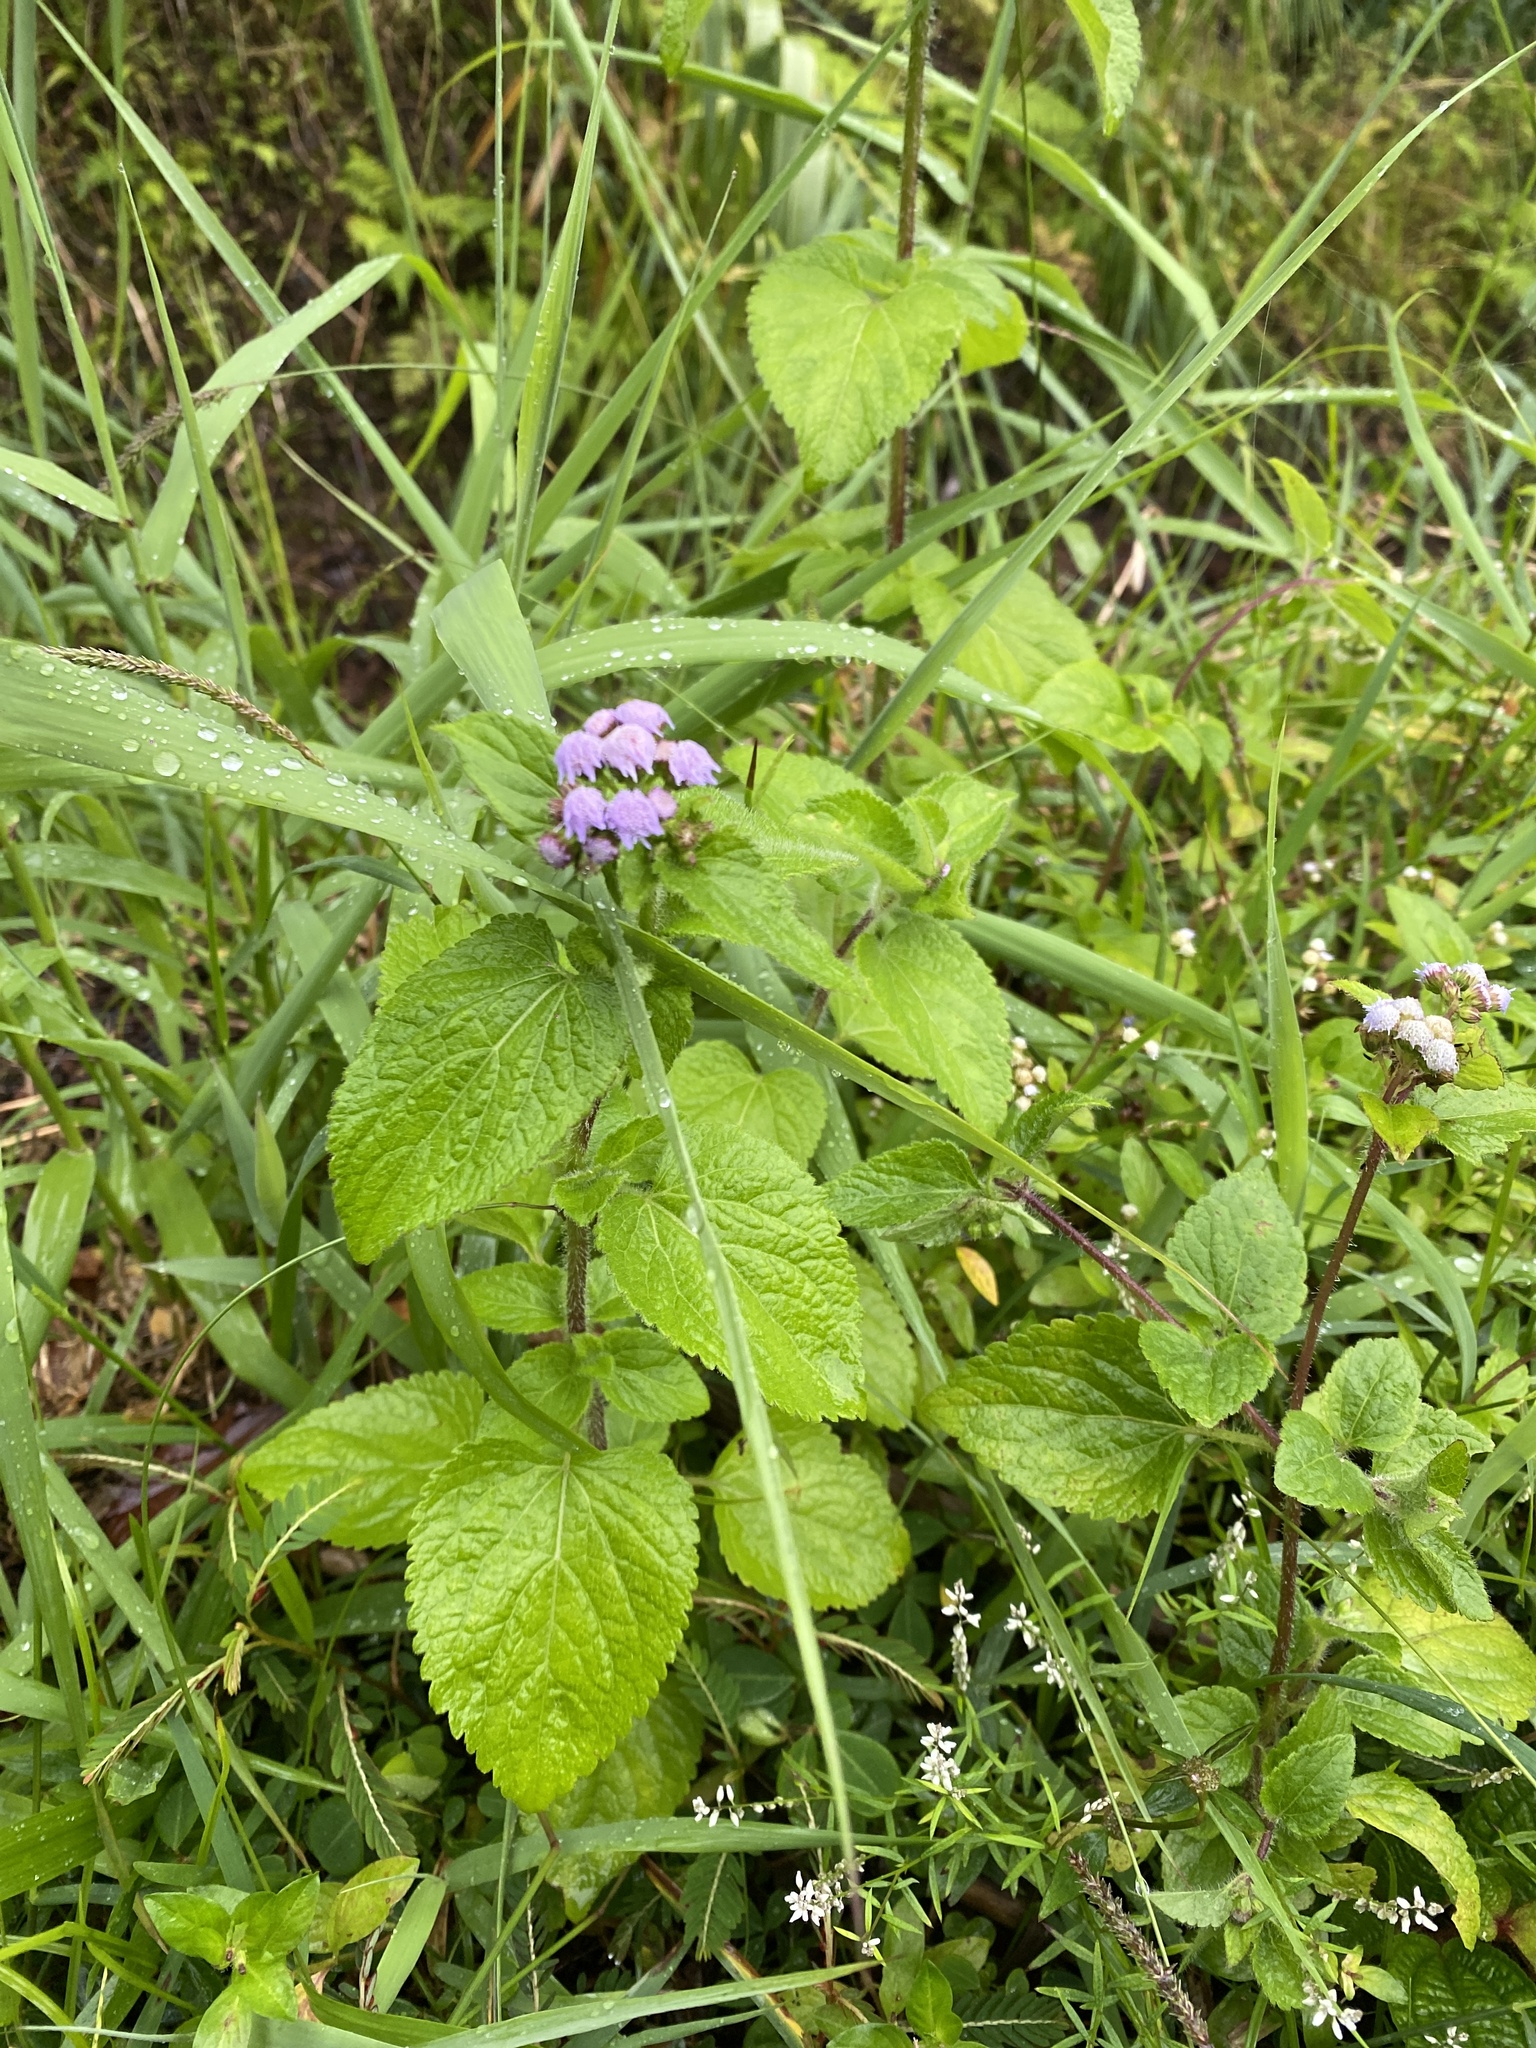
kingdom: Plantae
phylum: Tracheophyta
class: Magnoliopsida
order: Asterales
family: Asteraceae
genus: Ageratum
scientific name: Ageratum houstonianum
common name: Bluemink
